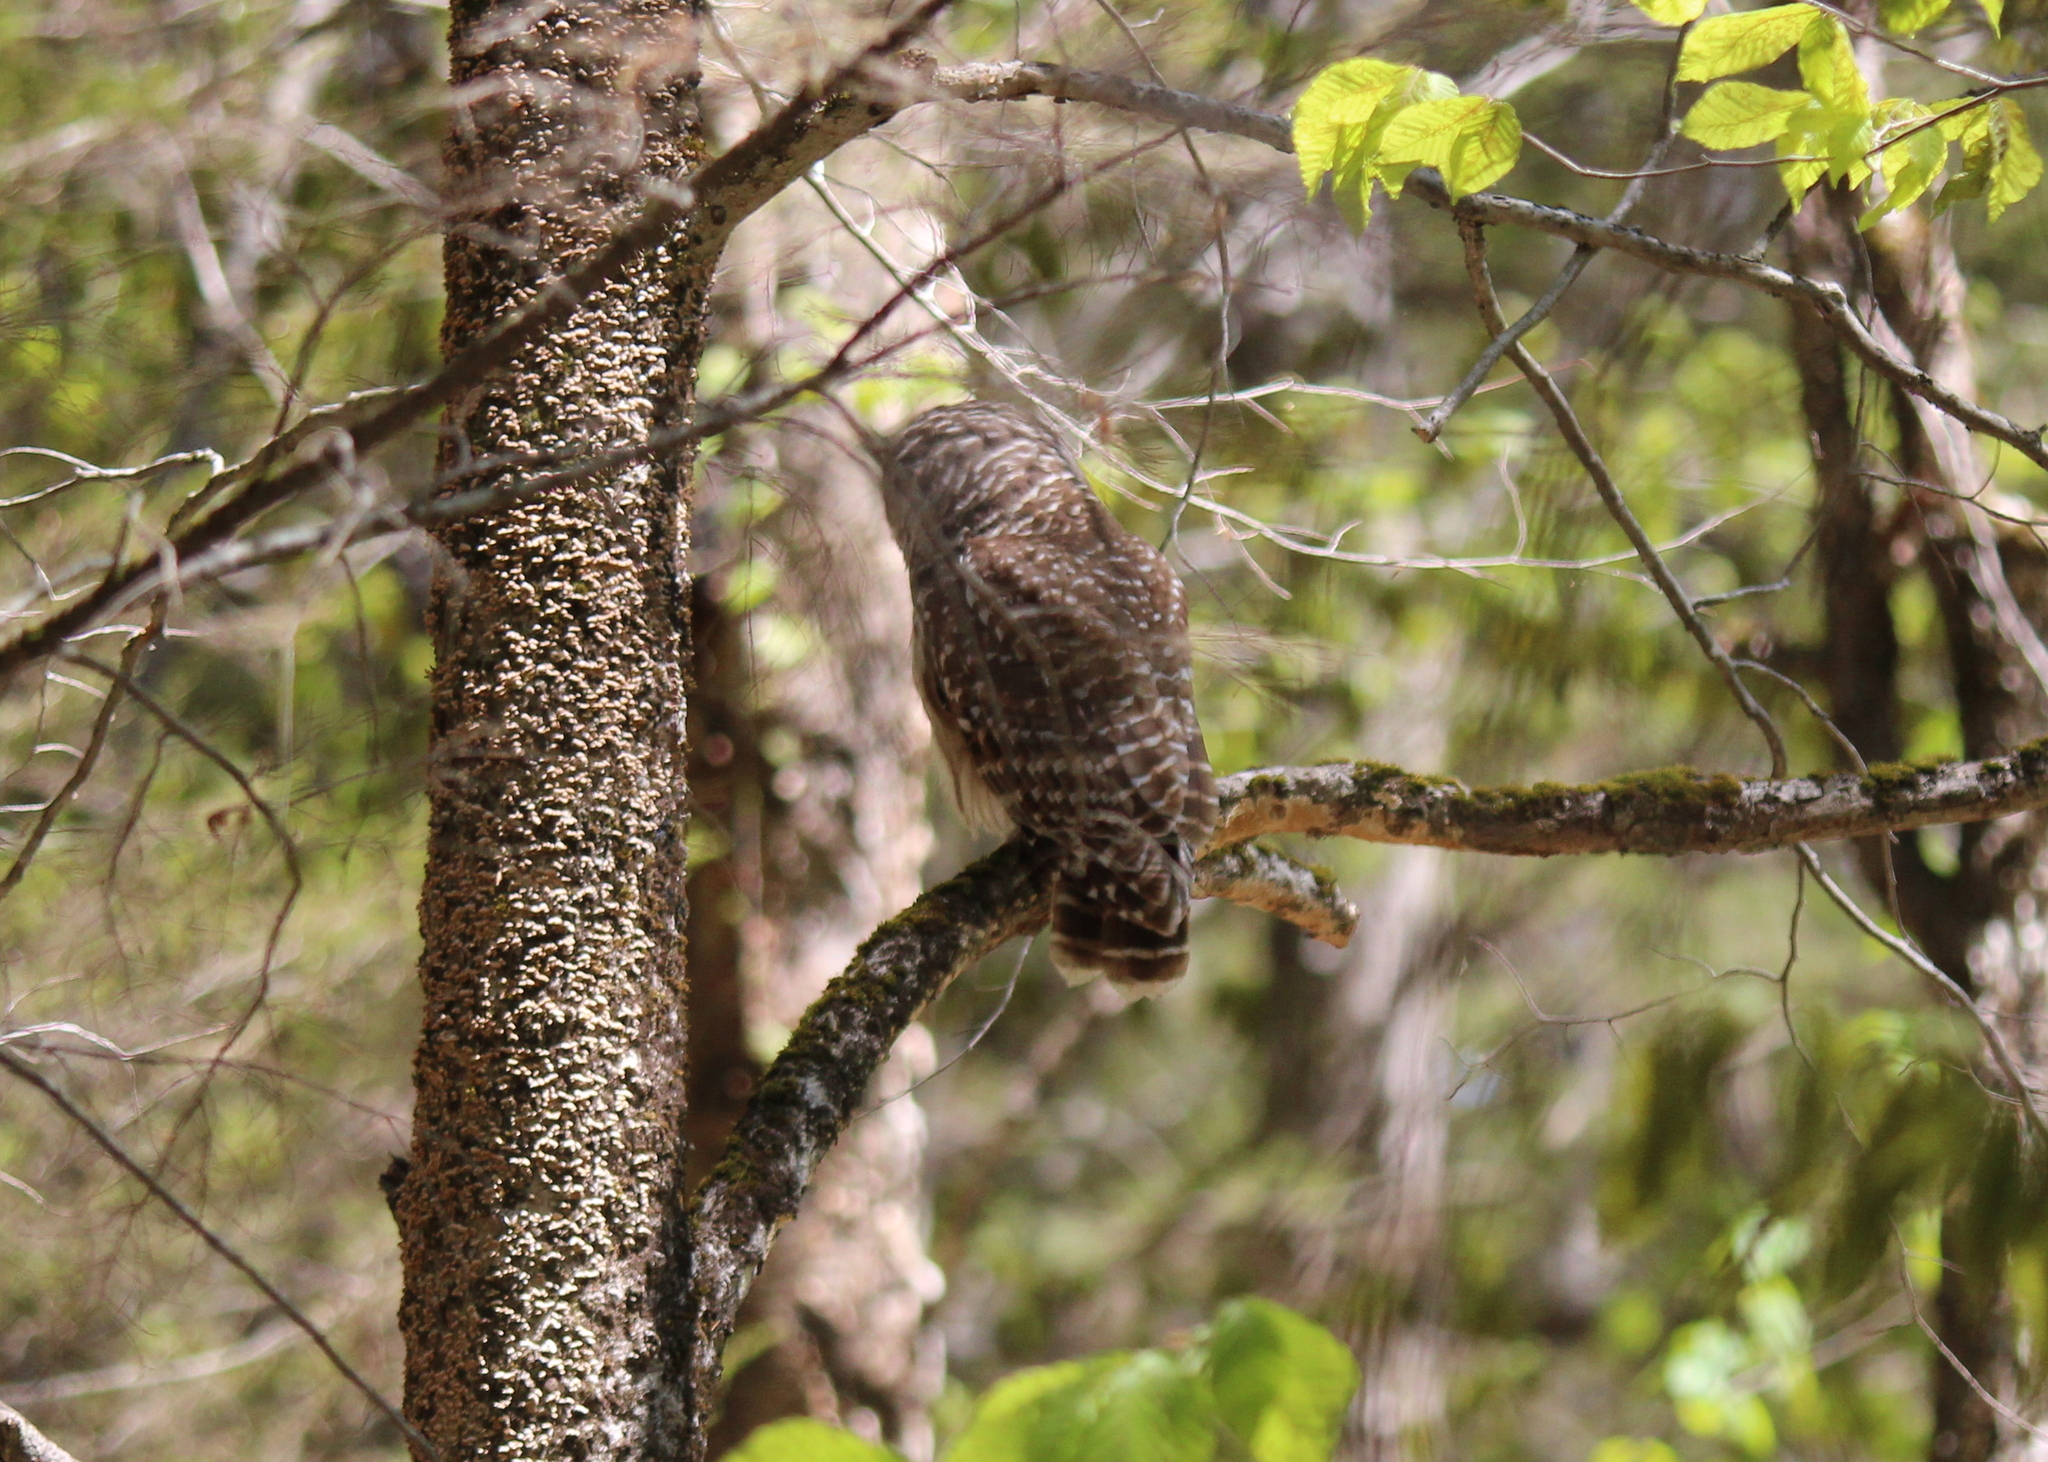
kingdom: Animalia
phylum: Chordata
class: Aves
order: Strigiformes
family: Strigidae
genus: Strix
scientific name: Strix varia
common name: Barred owl
